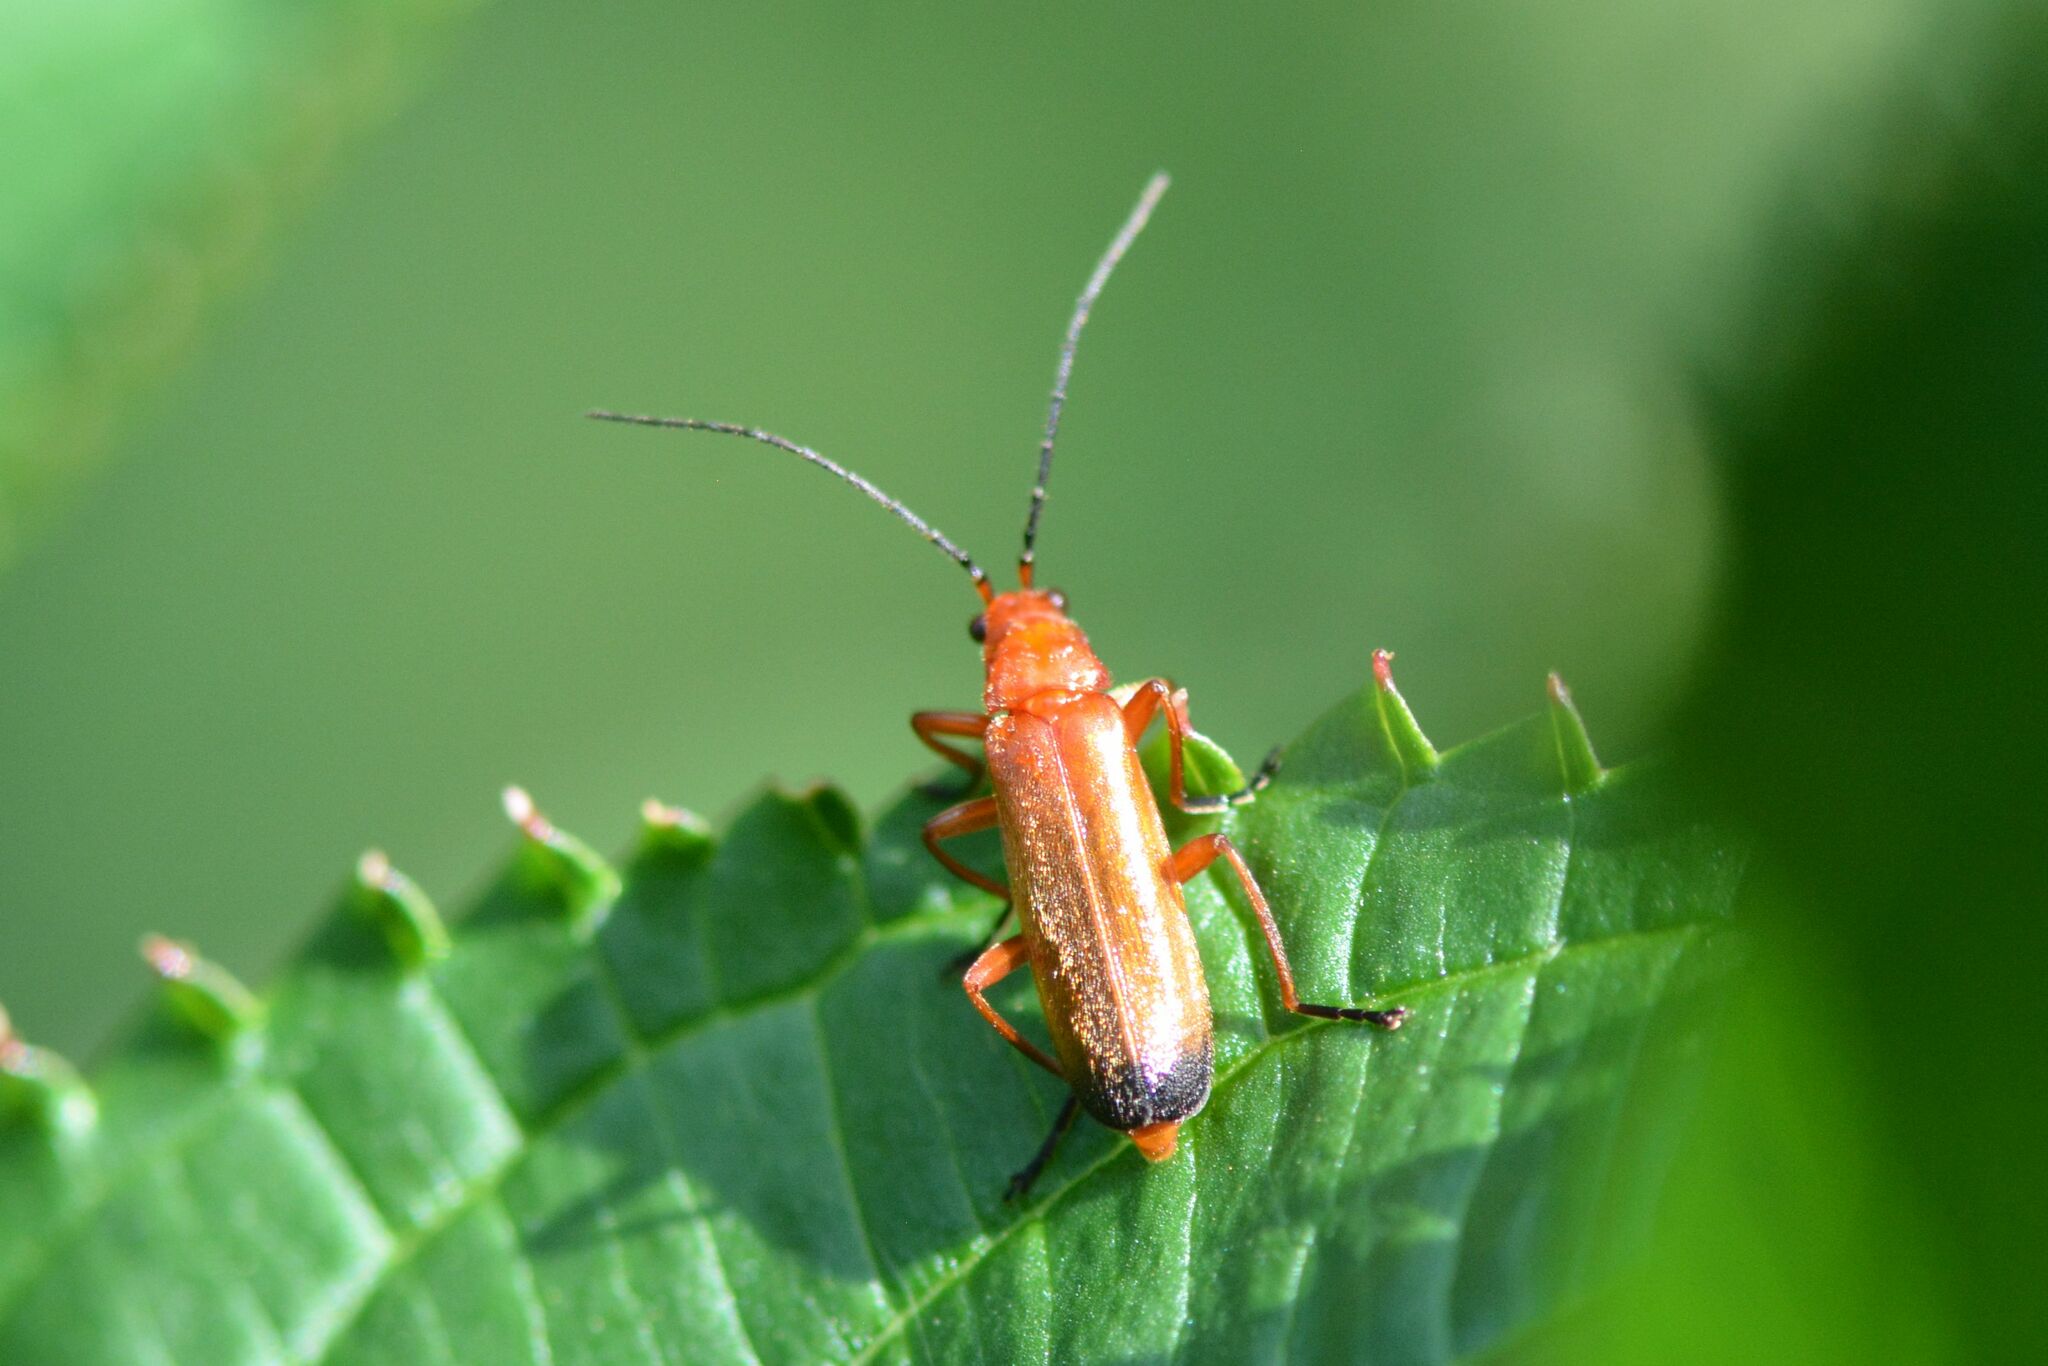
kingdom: Animalia
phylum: Arthropoda
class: Insecta
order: Coleoptera
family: Cantharidae
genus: Rhagonycha
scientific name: Rhagonycha fulva
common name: Common red soldier beetle
